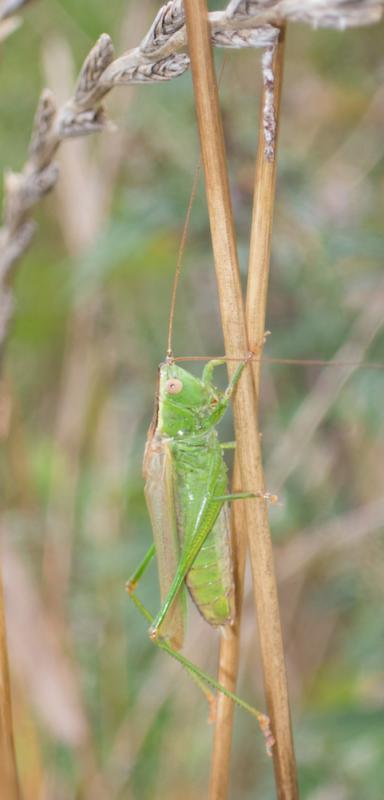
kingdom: Animalia
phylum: Arthropoda
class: Insecta
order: Orthoptera
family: Tettigoniidae
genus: Conocephalus
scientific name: Conocephalus fuscus
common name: Long-winged conehead
